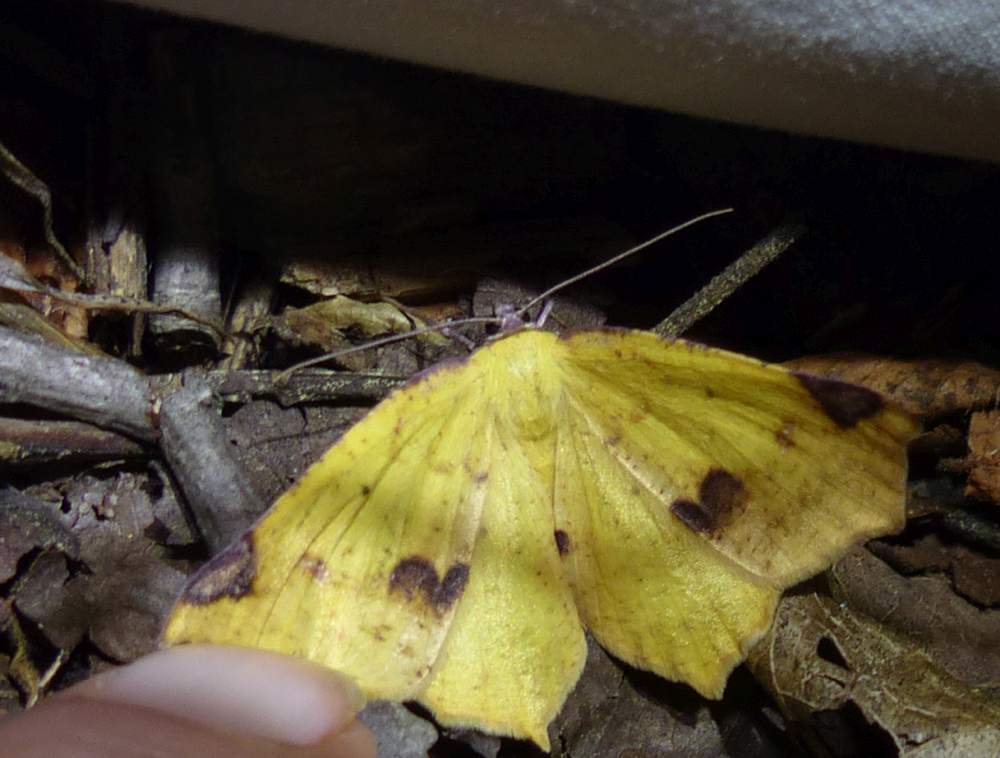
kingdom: Animalia
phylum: Arthropoda
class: Insecta
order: Lepidoptera
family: Geometridae
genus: Antepione
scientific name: Antepione thisoaria
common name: Variable antipione
